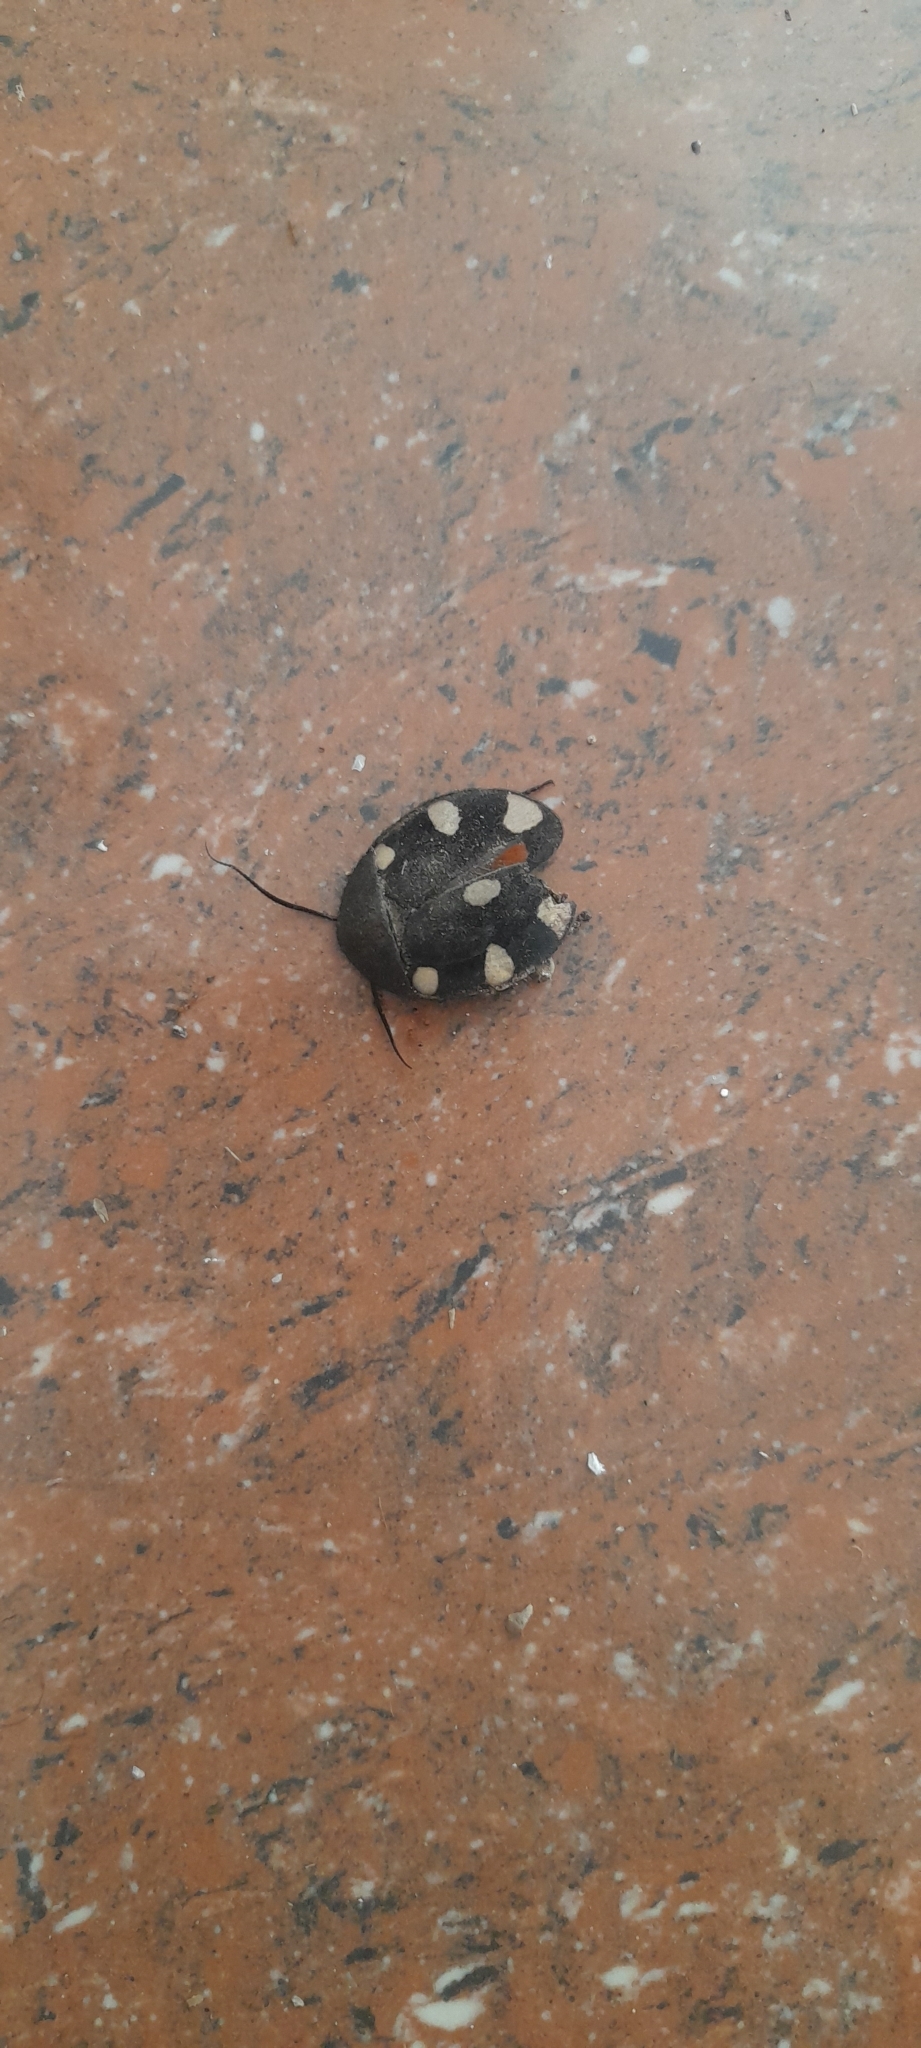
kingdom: Animalia
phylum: Arthropoda
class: Insecta
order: Blattodea
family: Corydiidae
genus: Therea
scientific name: Therea petiveriana
